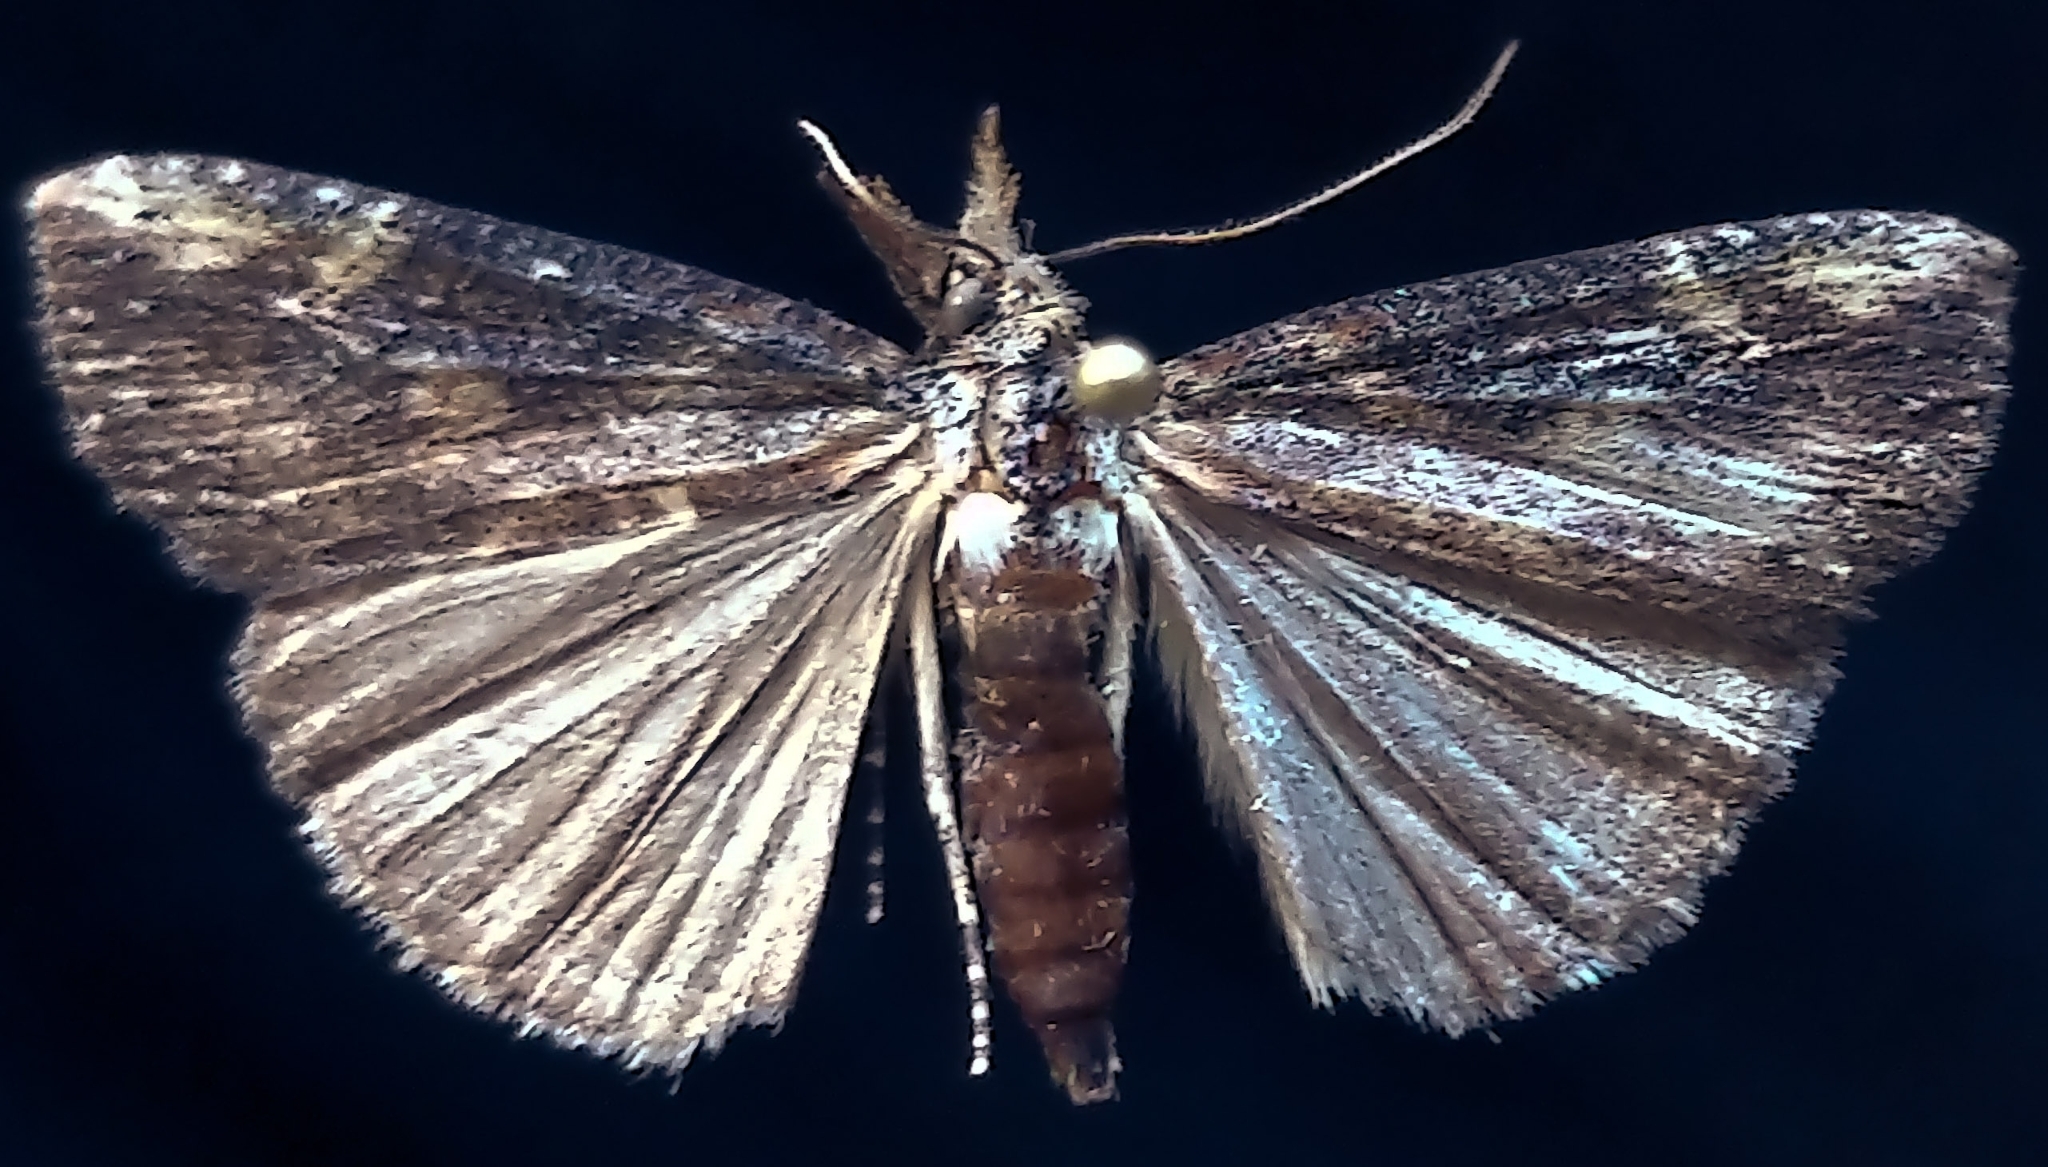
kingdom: Animalia
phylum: Arthropoda
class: Insecta
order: Lepidoptera
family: Erebidae
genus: Hypena
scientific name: Hypena humuli
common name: Hop vine snout
